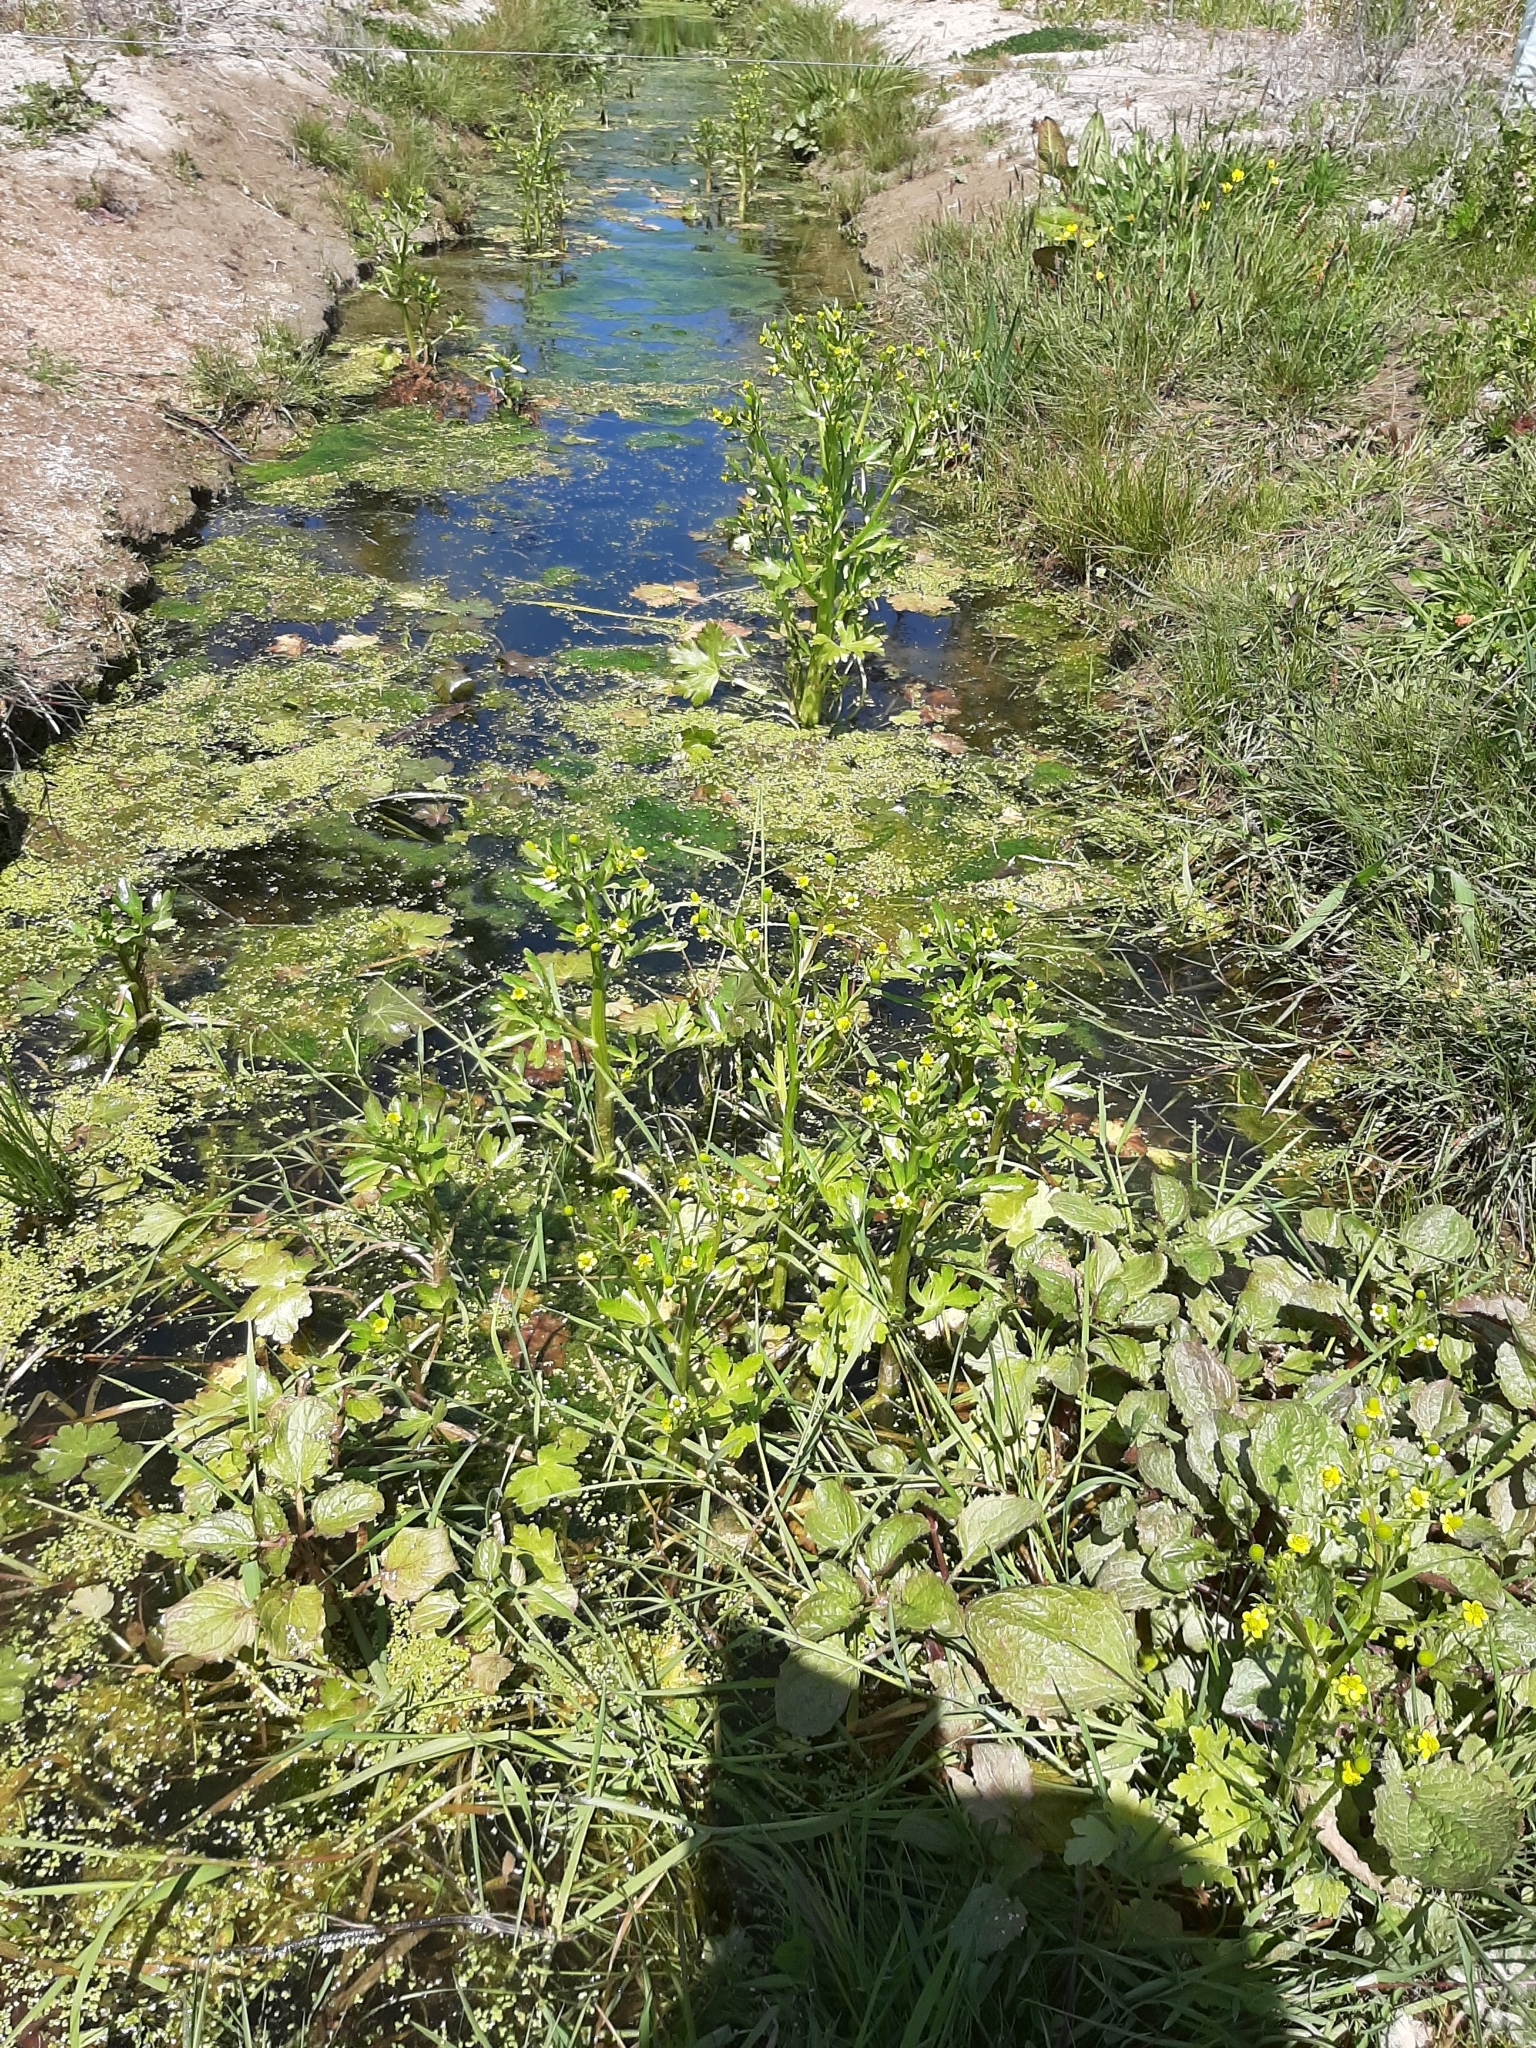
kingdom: Plantae
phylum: Tracheophyta
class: Magnoliopsida
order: Ranunculales
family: Ranunculaceae
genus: Ranunculus
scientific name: Ranunculus sceleratus
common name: Celery-leaved buttercup
